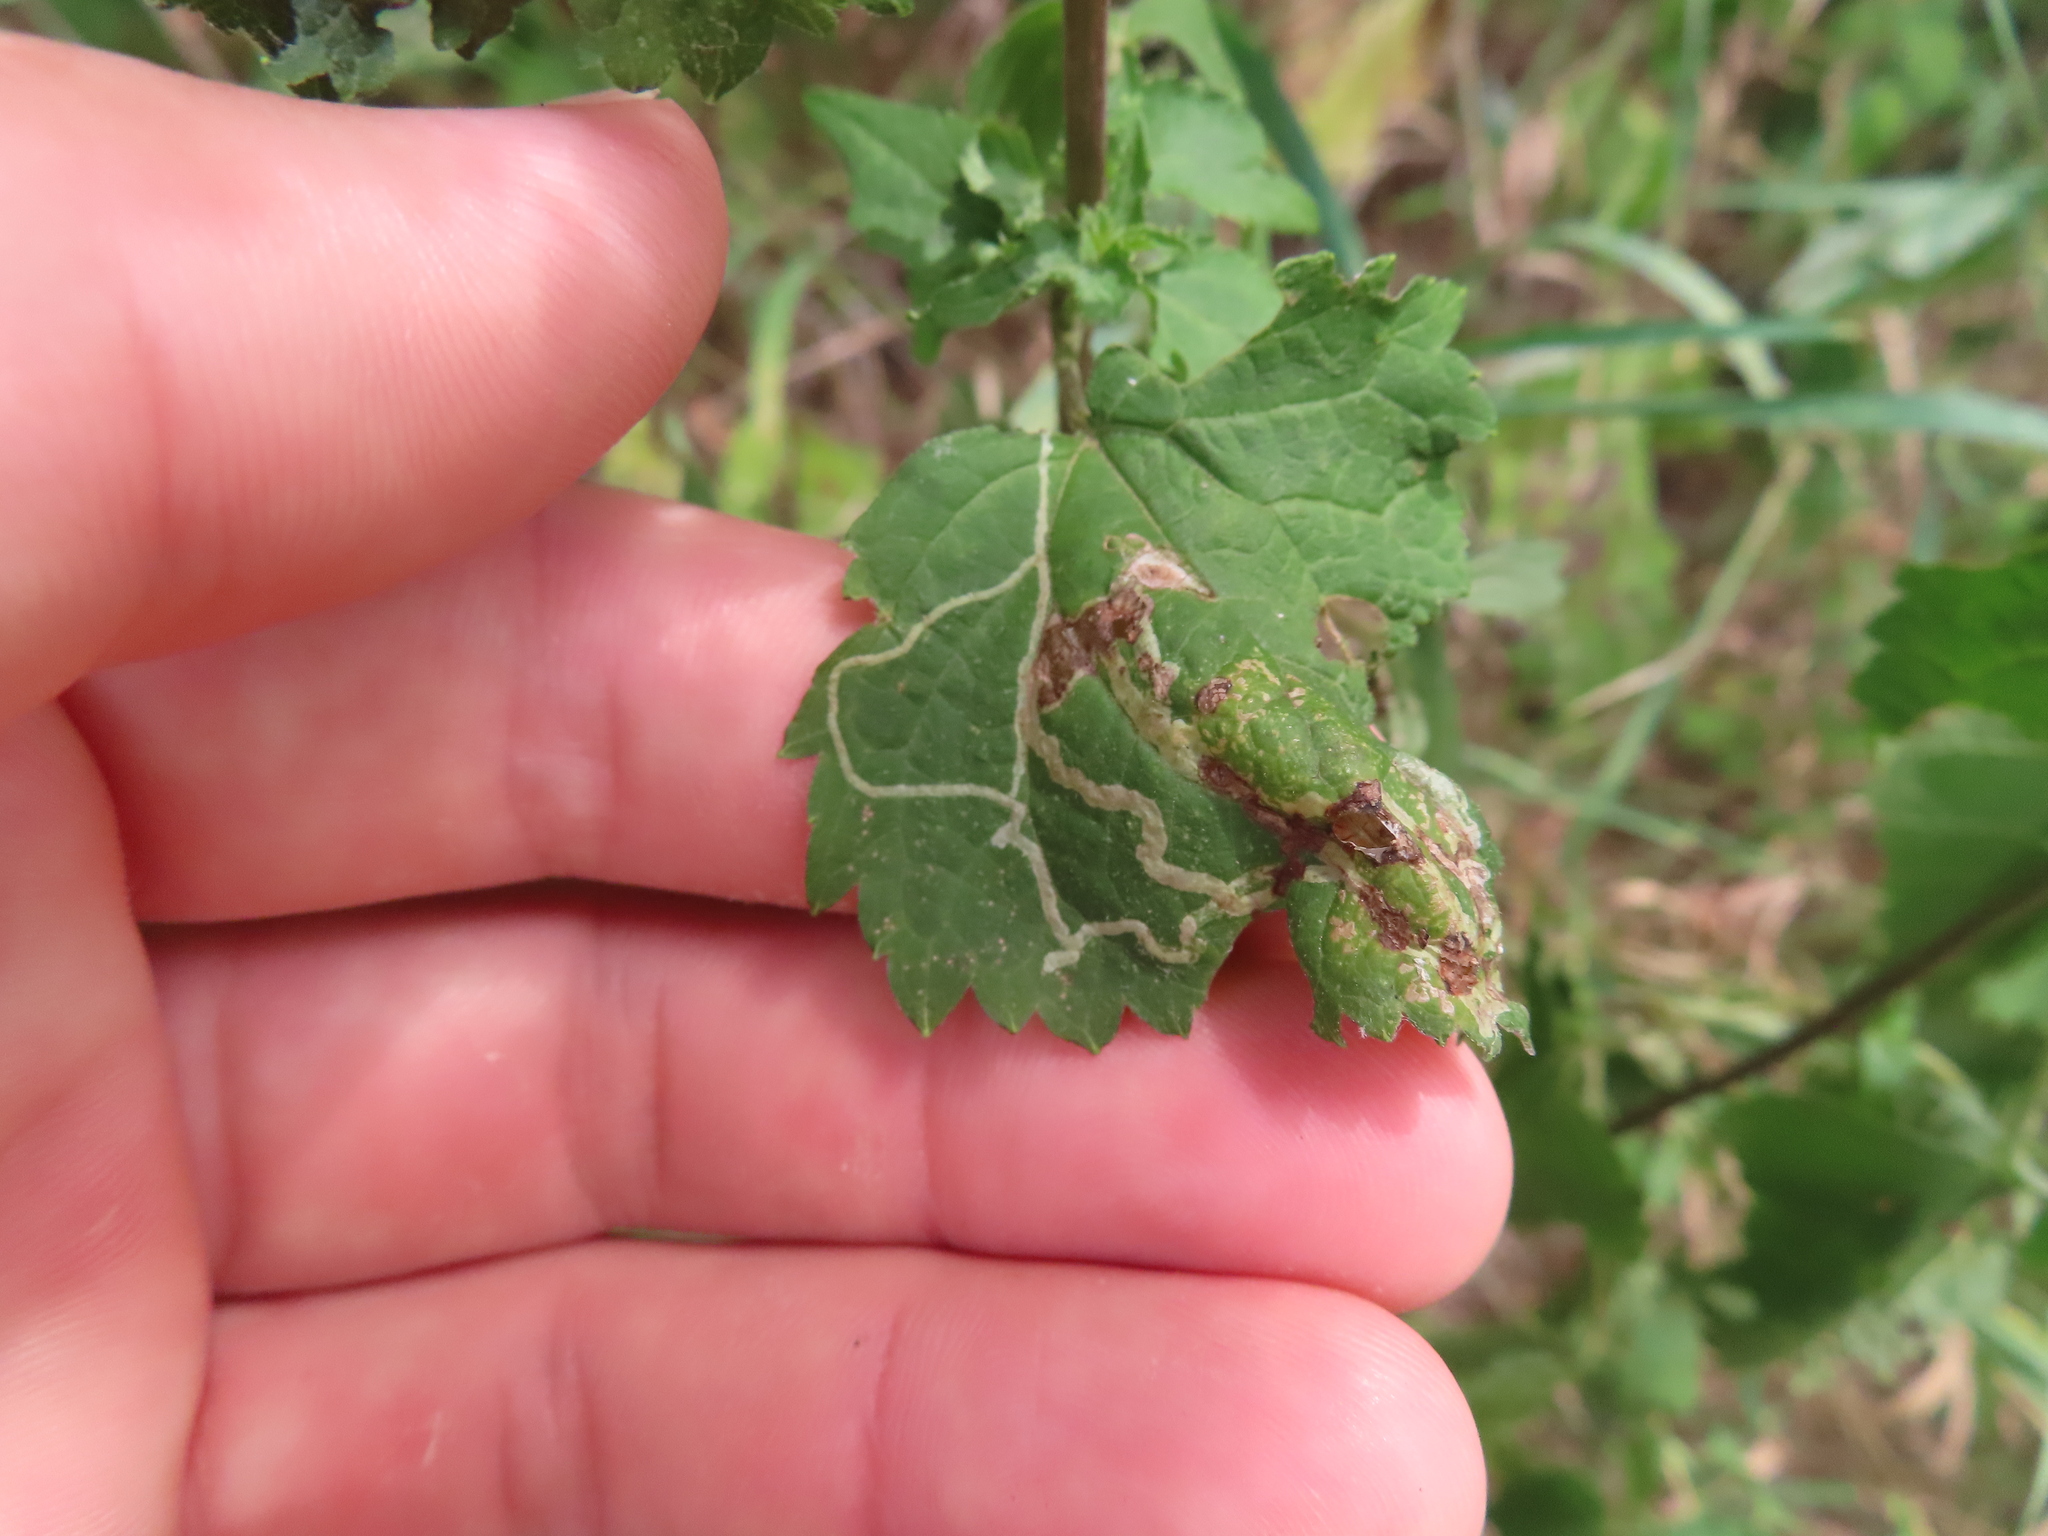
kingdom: Animalia
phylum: Arthropoda
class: Insecta
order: Diptera
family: Agromyzidae
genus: Liriomyza
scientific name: Liriomyza
